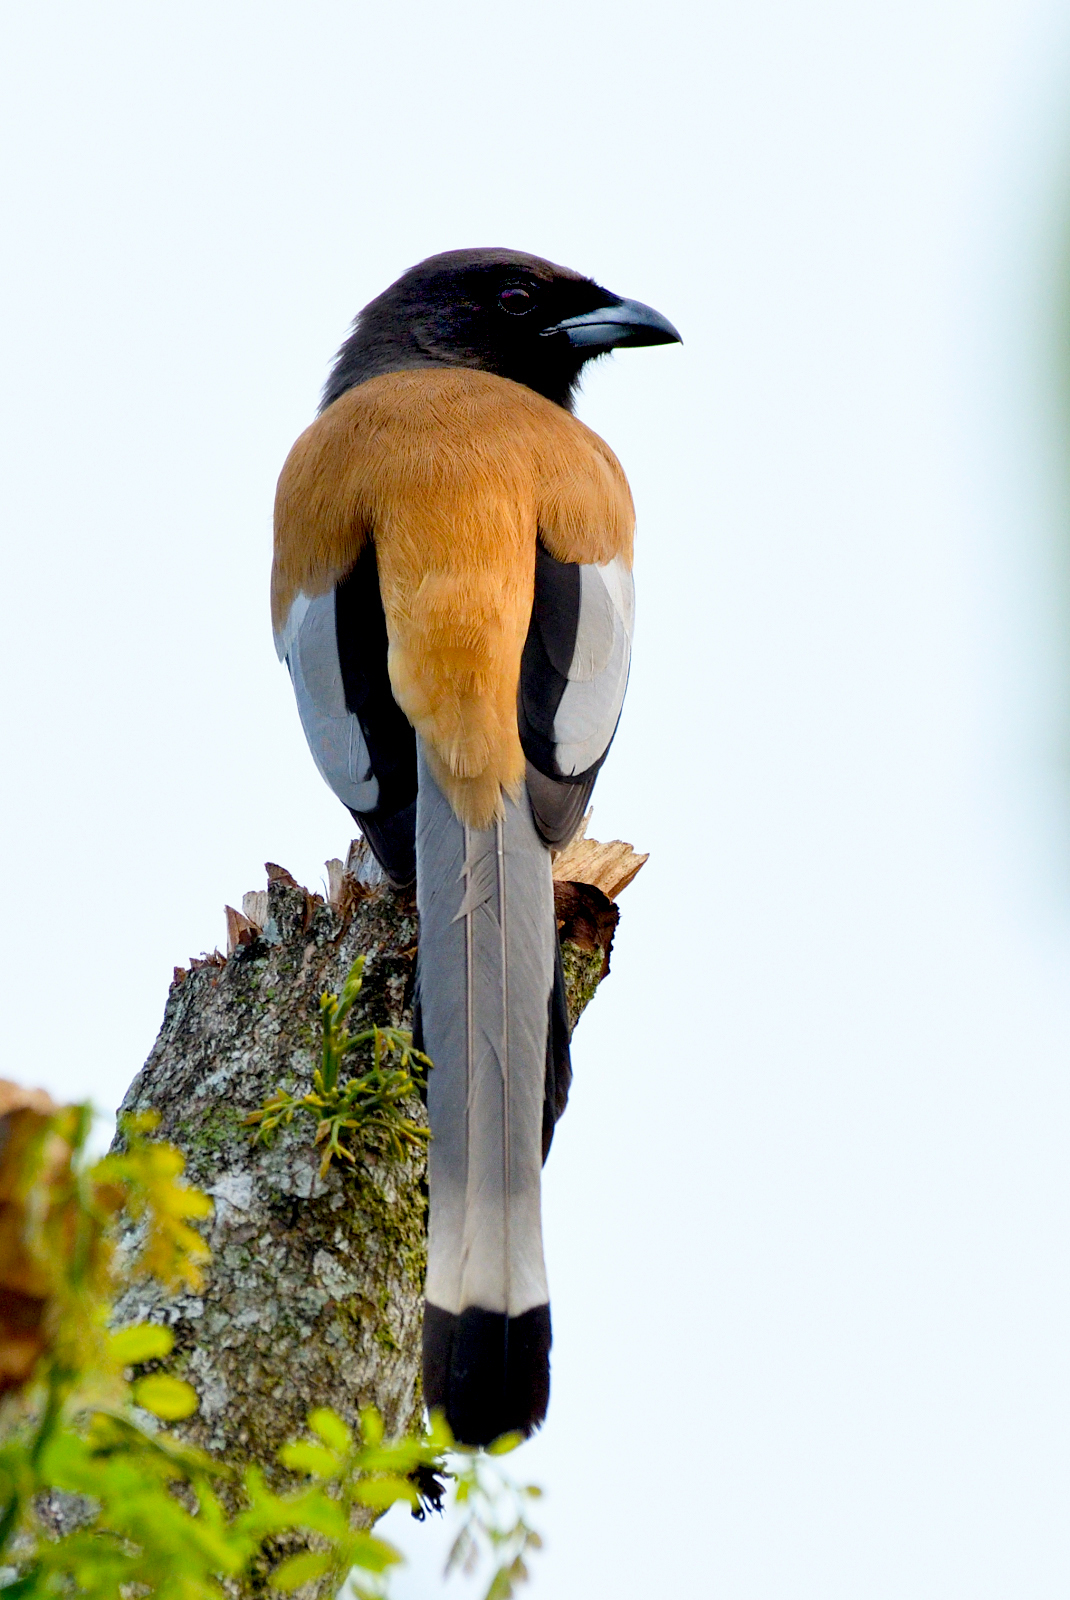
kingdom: Animalia
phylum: Chordata
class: Aves
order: Passeriformes
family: Corvidae
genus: Dendrocitta
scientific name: Dendrocitta vagabunda
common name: Rufous treepie
